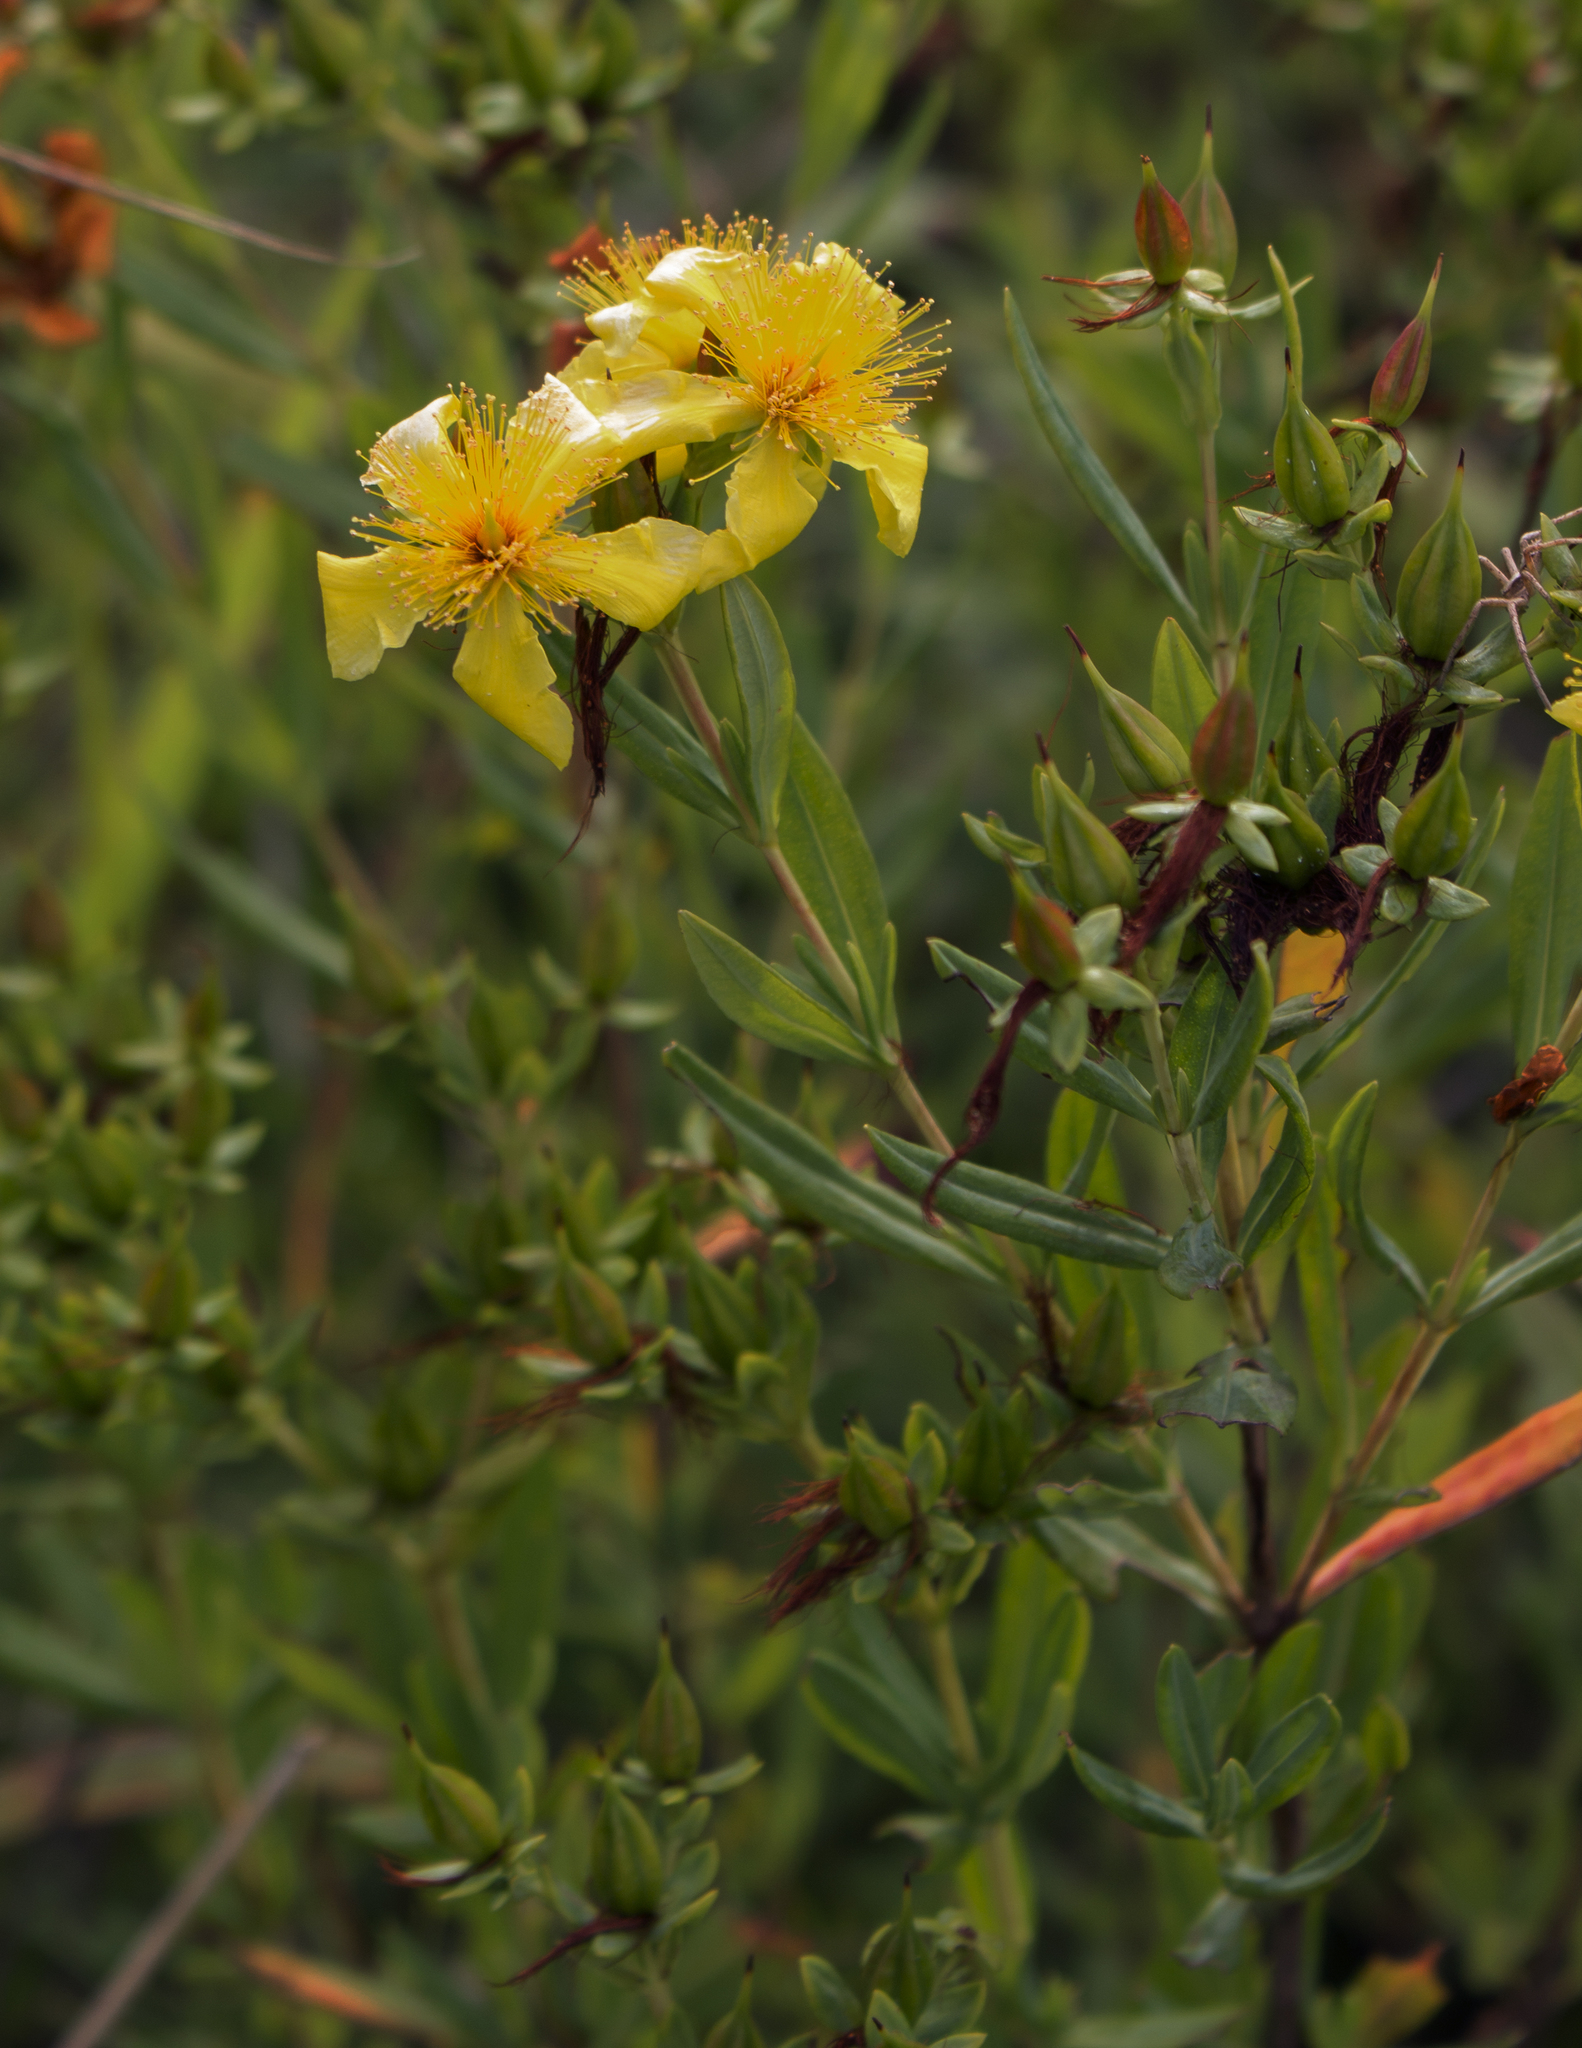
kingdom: Plantae
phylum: Tracheophyta
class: Magnoliopsida
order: Malpighiales
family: Hypericaceae
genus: Hypericum
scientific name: Hypericum kalmianum
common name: Kalm's st. john's-wort
